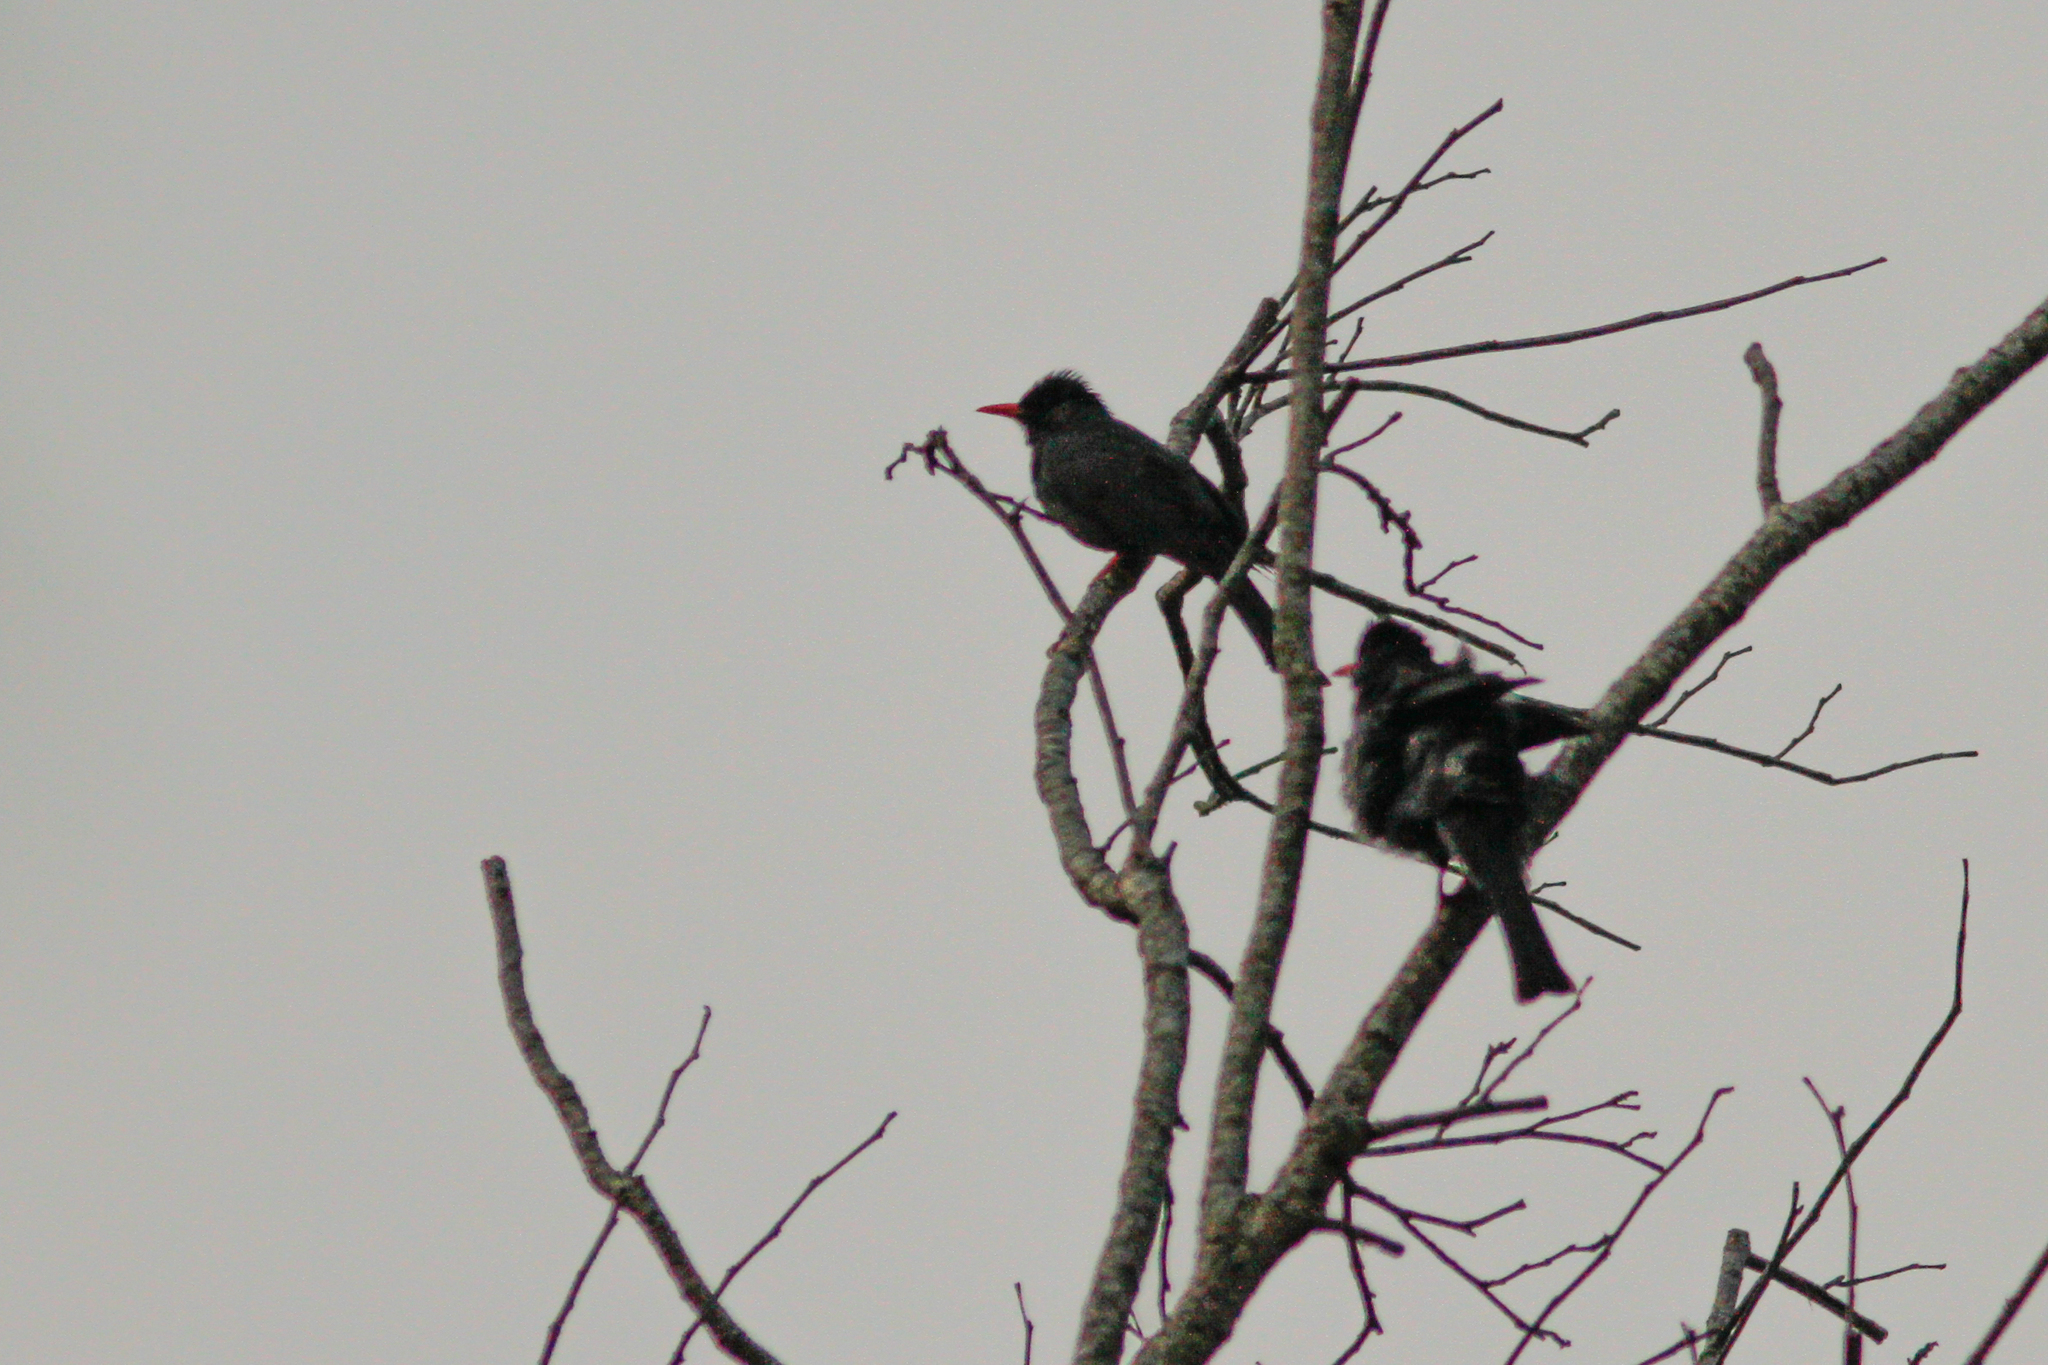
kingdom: Animalia
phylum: Chordata
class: Aves
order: Passeriformes
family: Pycnonotidae
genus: Hypsipetes
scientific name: Hypsipetes leucocephalus
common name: Black bulbul
